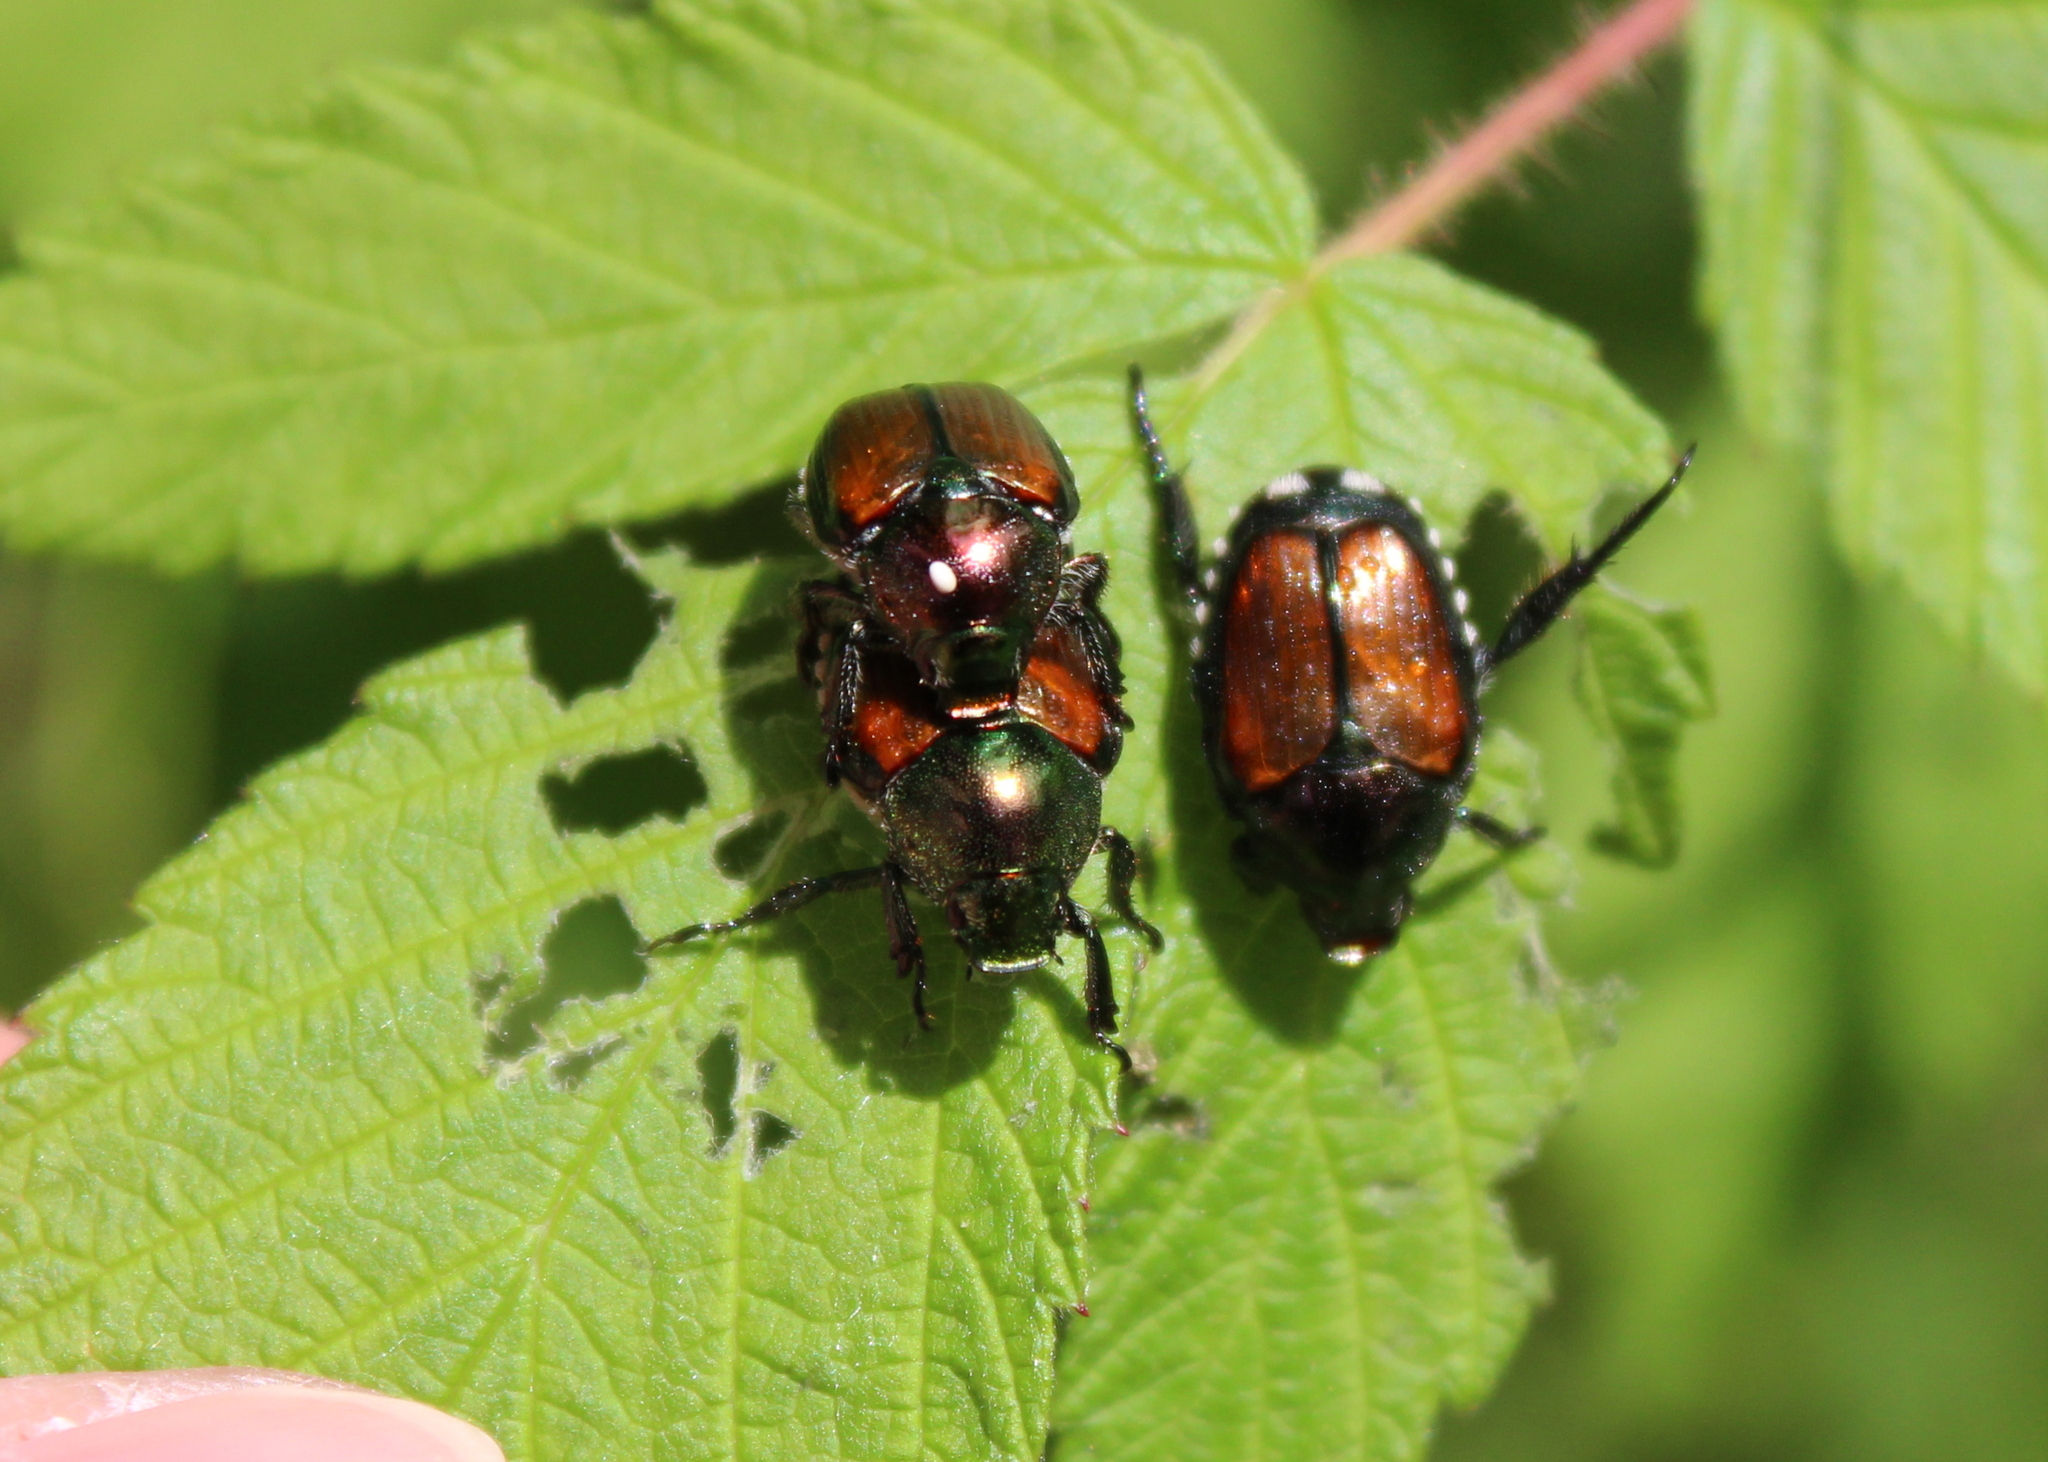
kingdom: Animalia
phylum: Arthropoda
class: Insecta
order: Diptera
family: Tachinidae
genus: Istocheta
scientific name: Istocheta aldrichi
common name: Parasitic wasp
